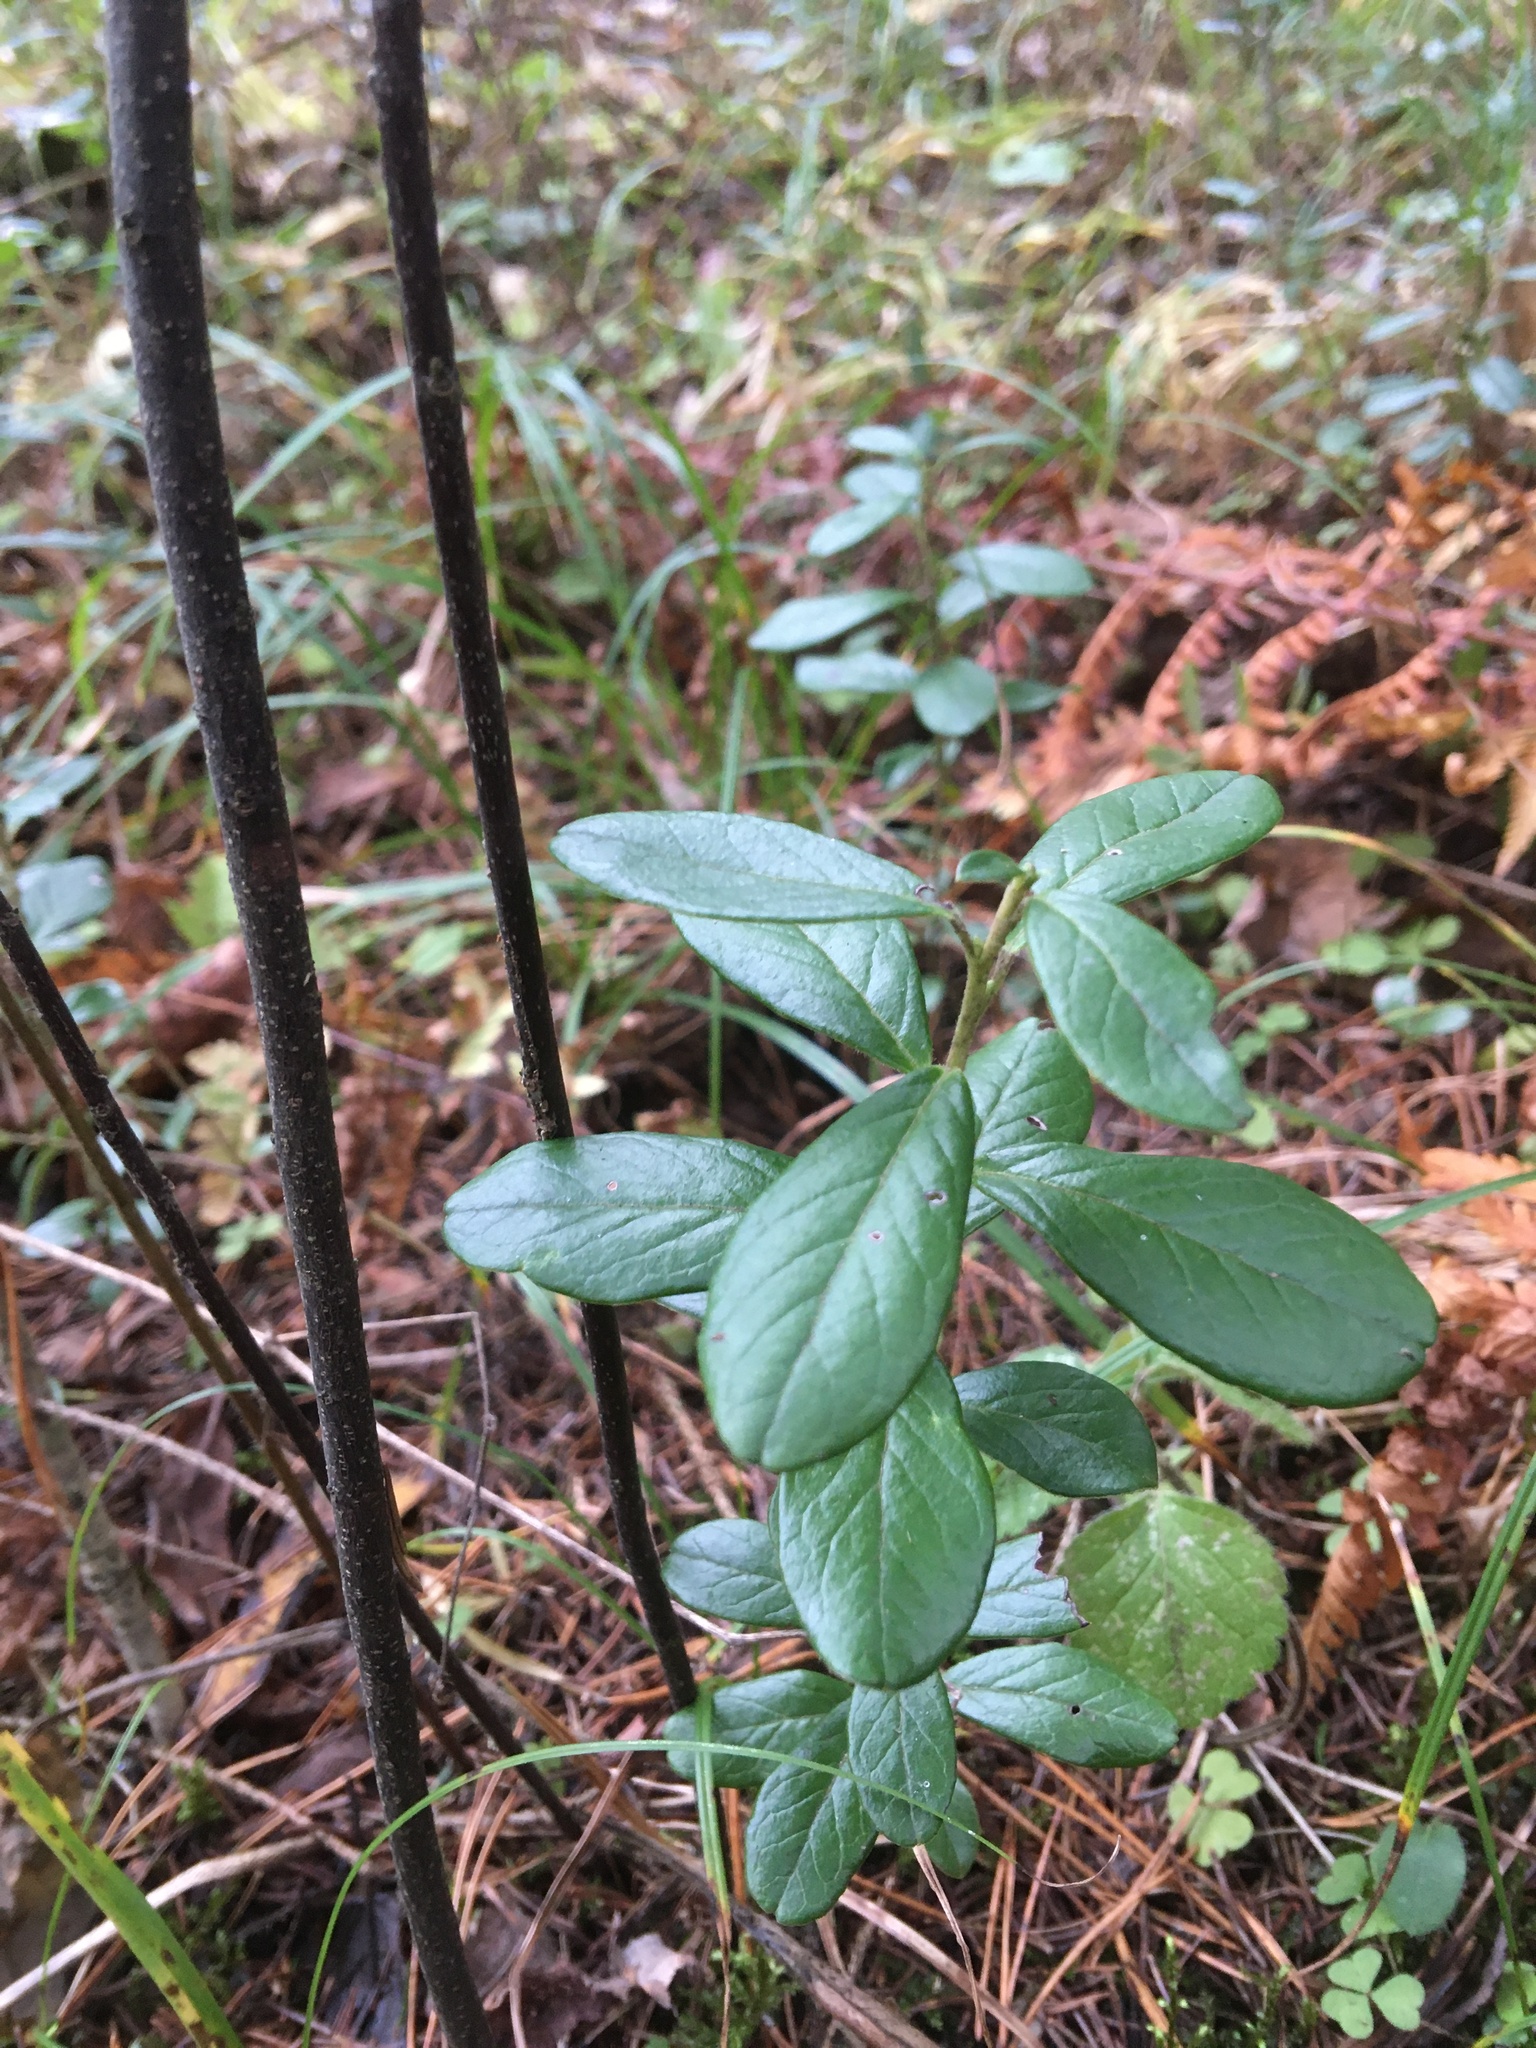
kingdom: Plantae
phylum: Tracheophyta
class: Magnoliopsida
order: Ericales
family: Ericaceae
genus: Vaccinium
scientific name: Vaccinium vitis-idaea
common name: Cowberry
